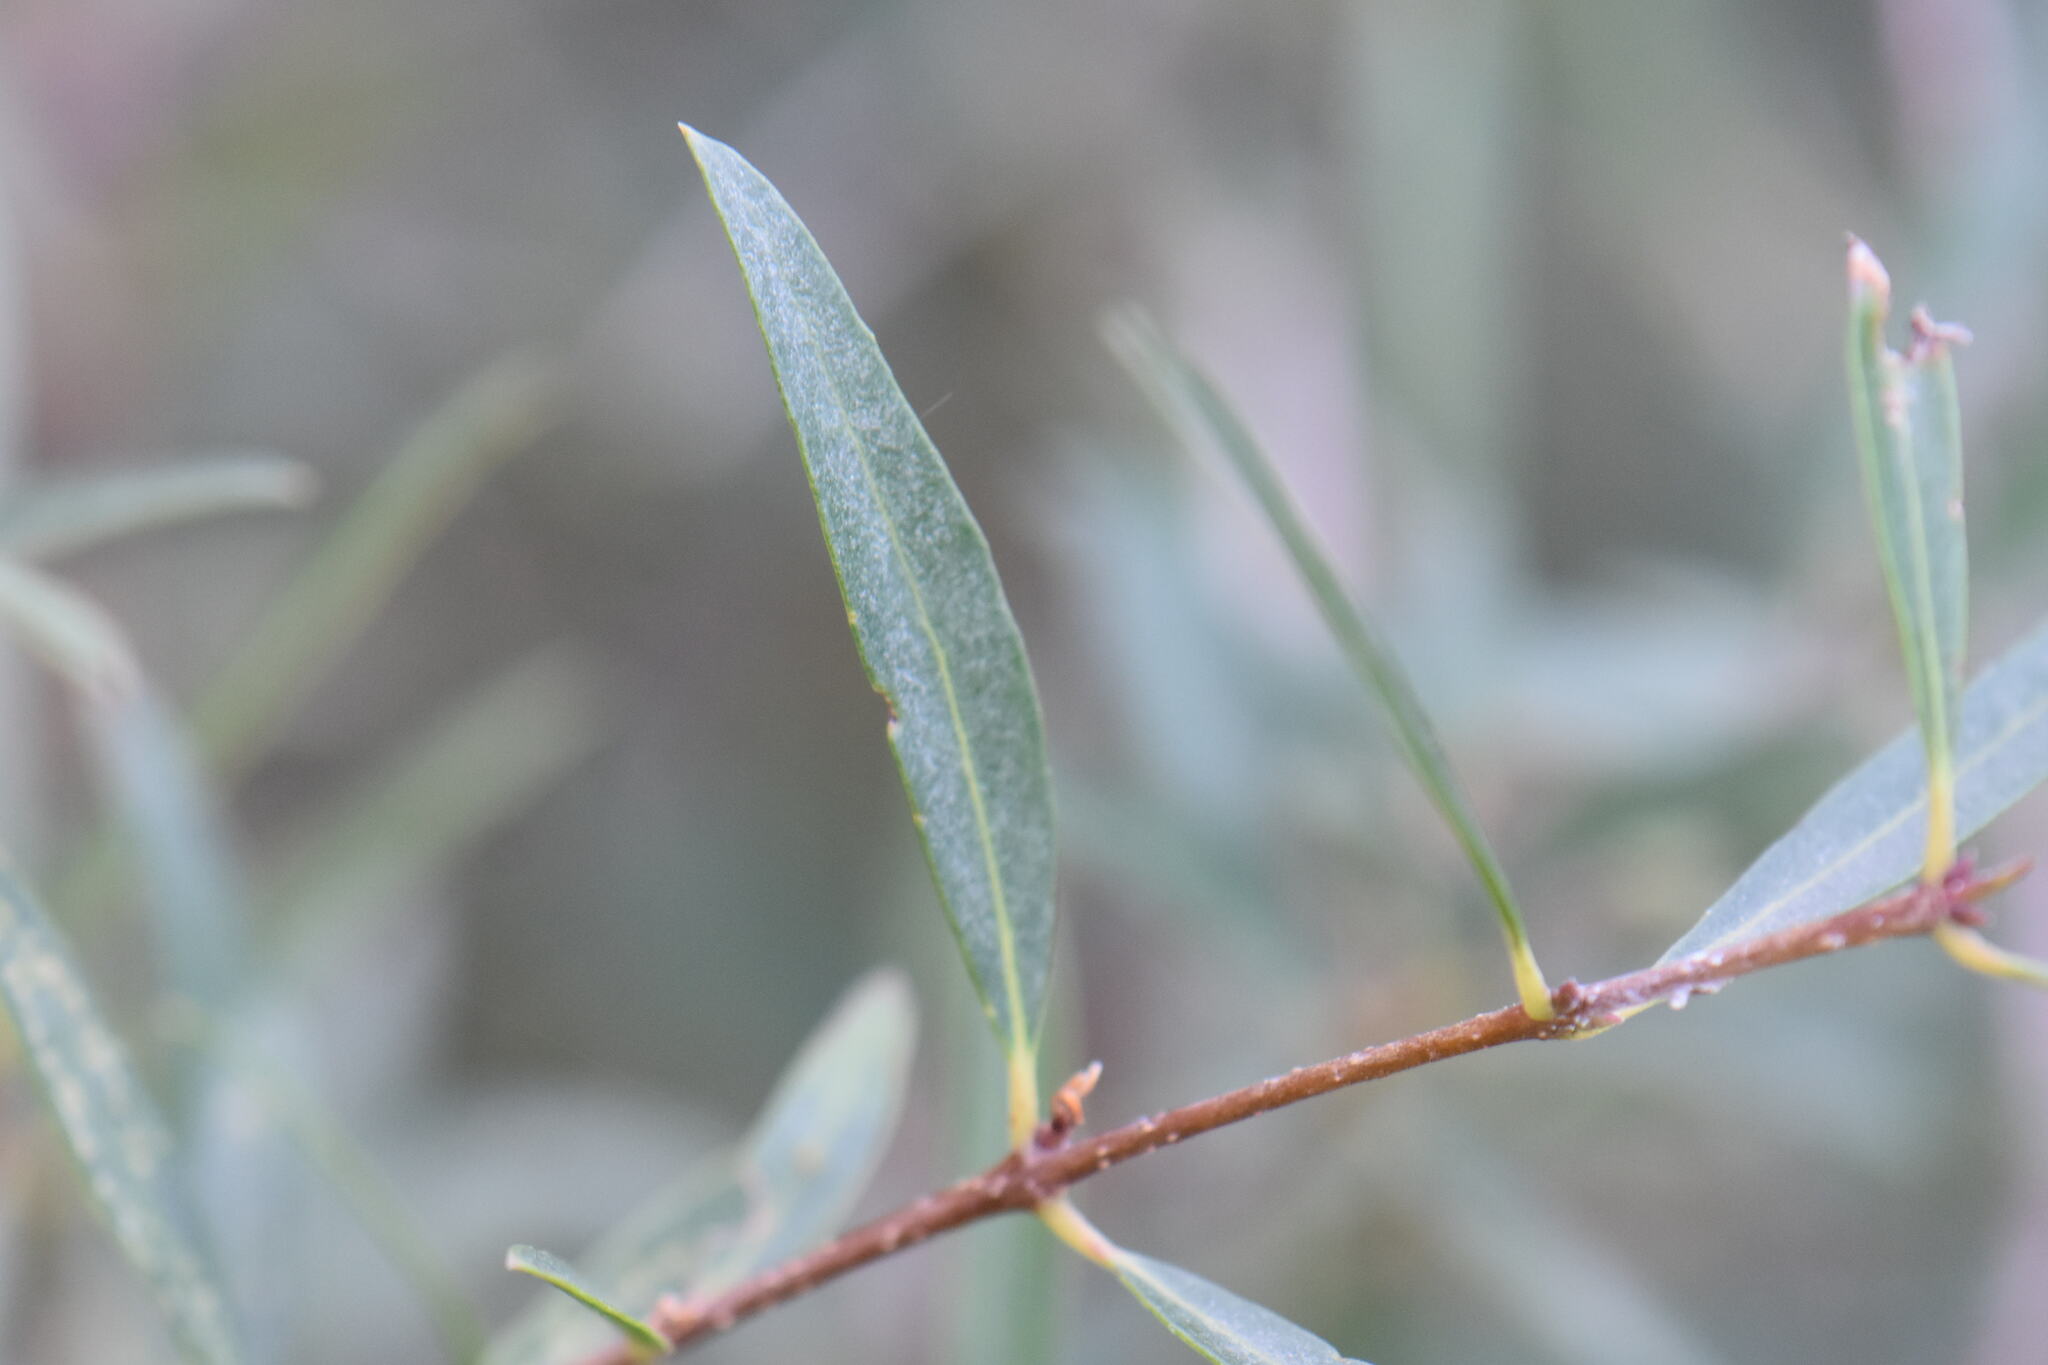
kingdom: Plantae
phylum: Tracheophyta
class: Magnoliopsida
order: Lamiales
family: Oleaceae
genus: Phillyrea
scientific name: Phillyrea angustifolia
